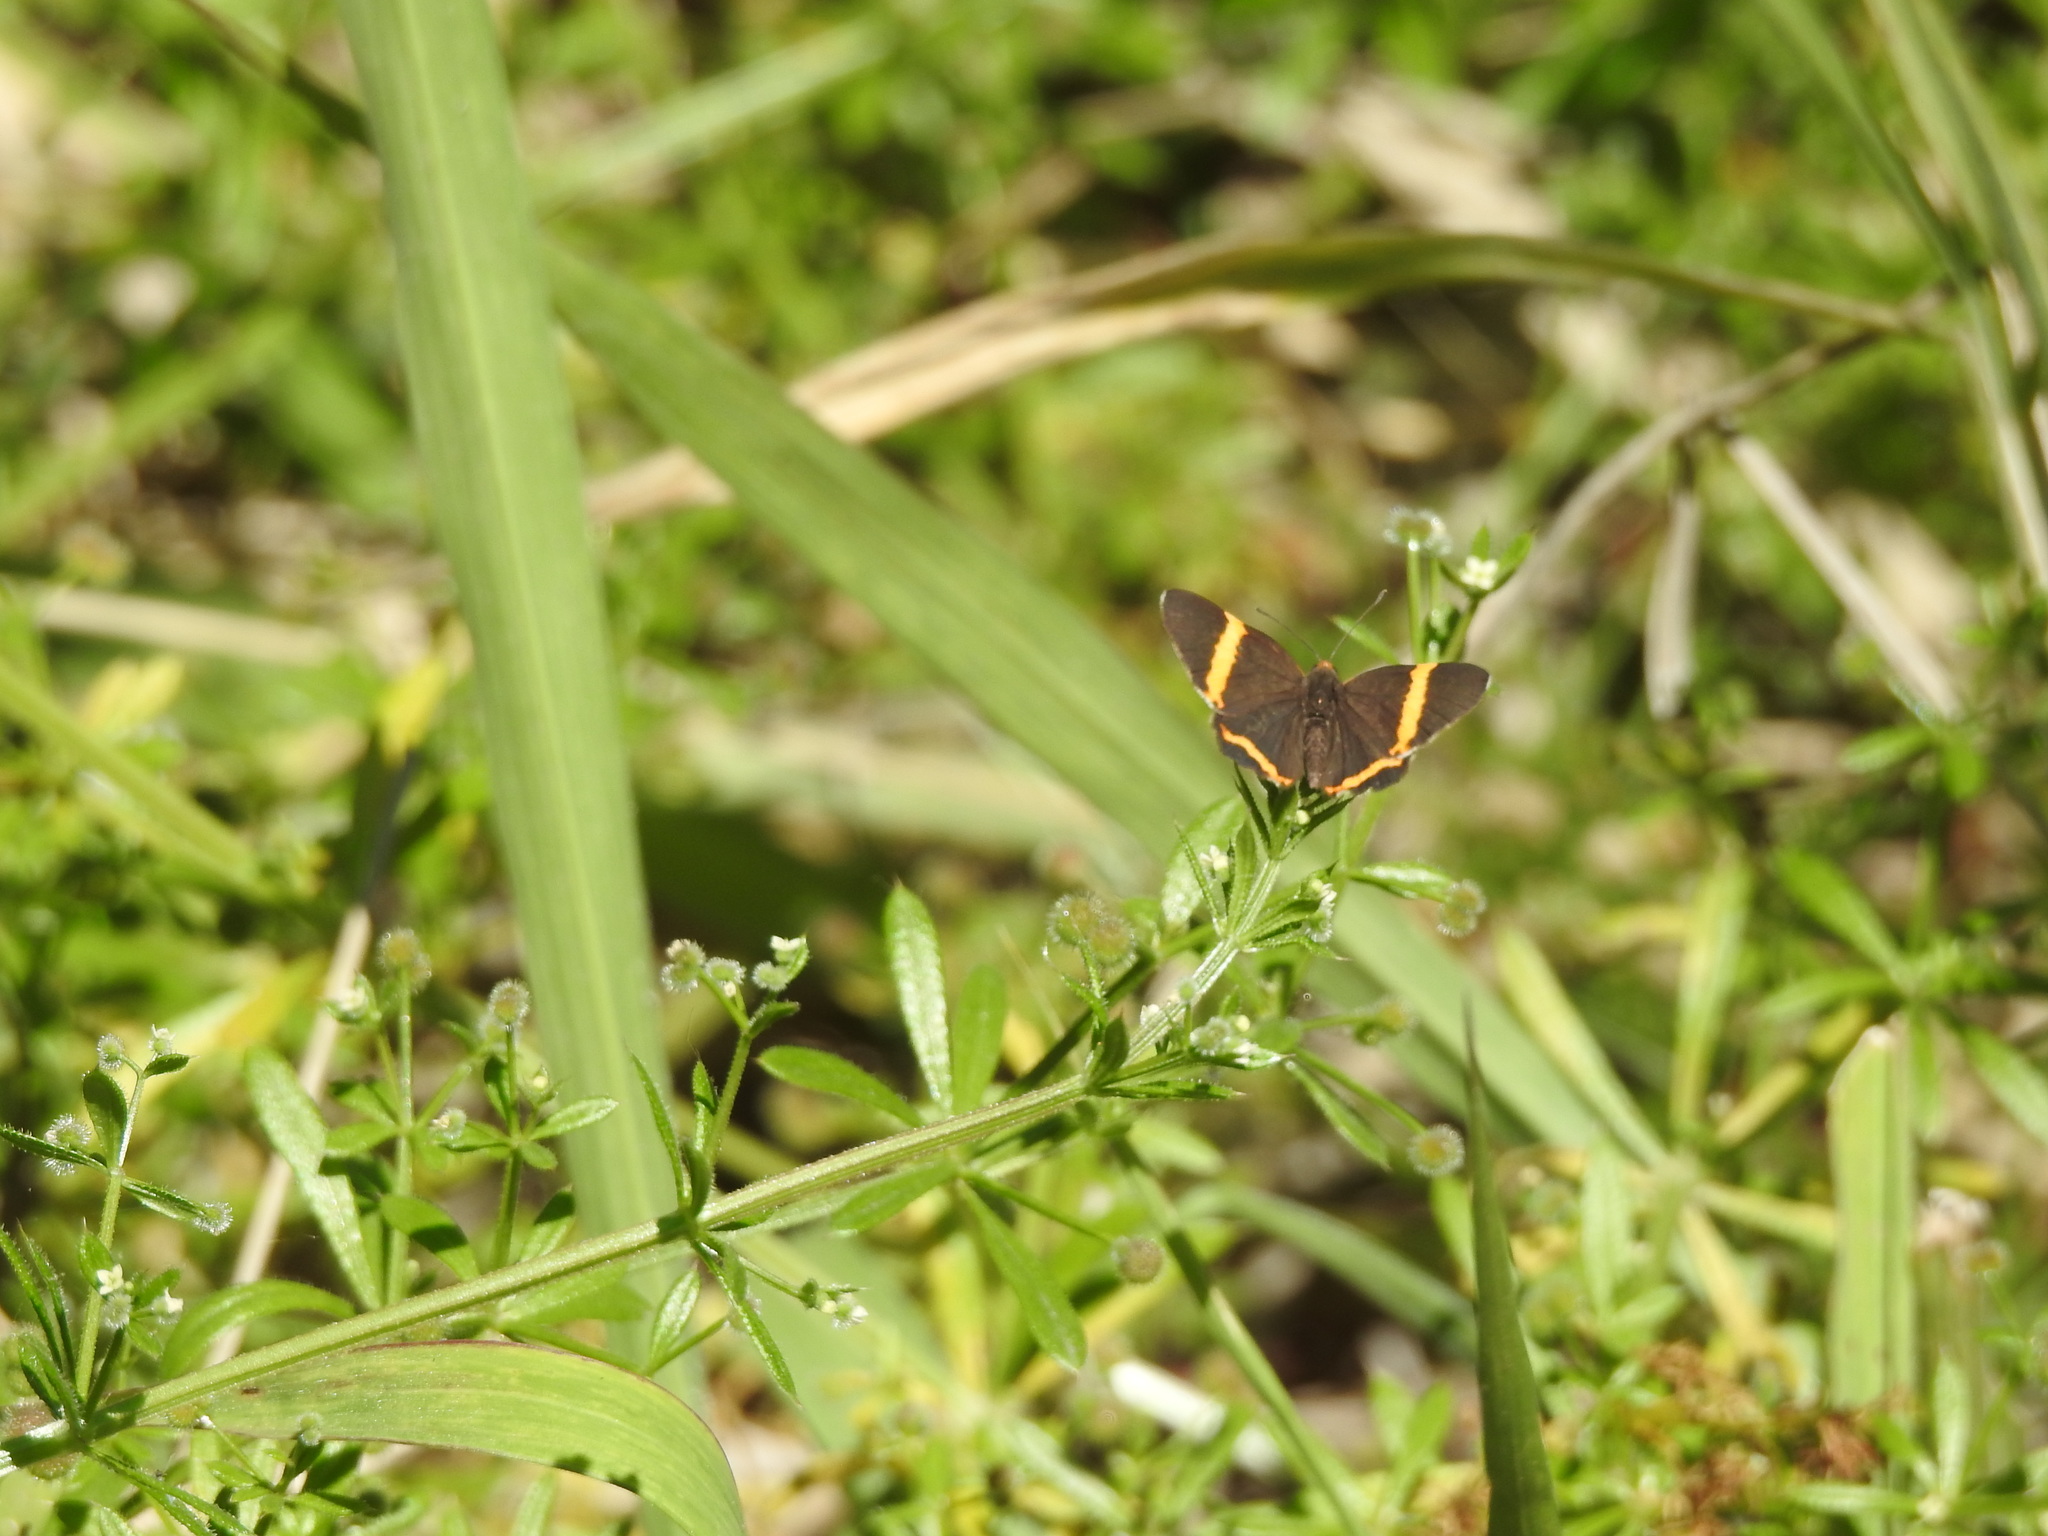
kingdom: Animalia
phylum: Arthropoda
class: Insecta
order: Lepidoptera
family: Riodinidae
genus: Riodina
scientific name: Riodina lysippoides
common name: Little dancer metalmark
